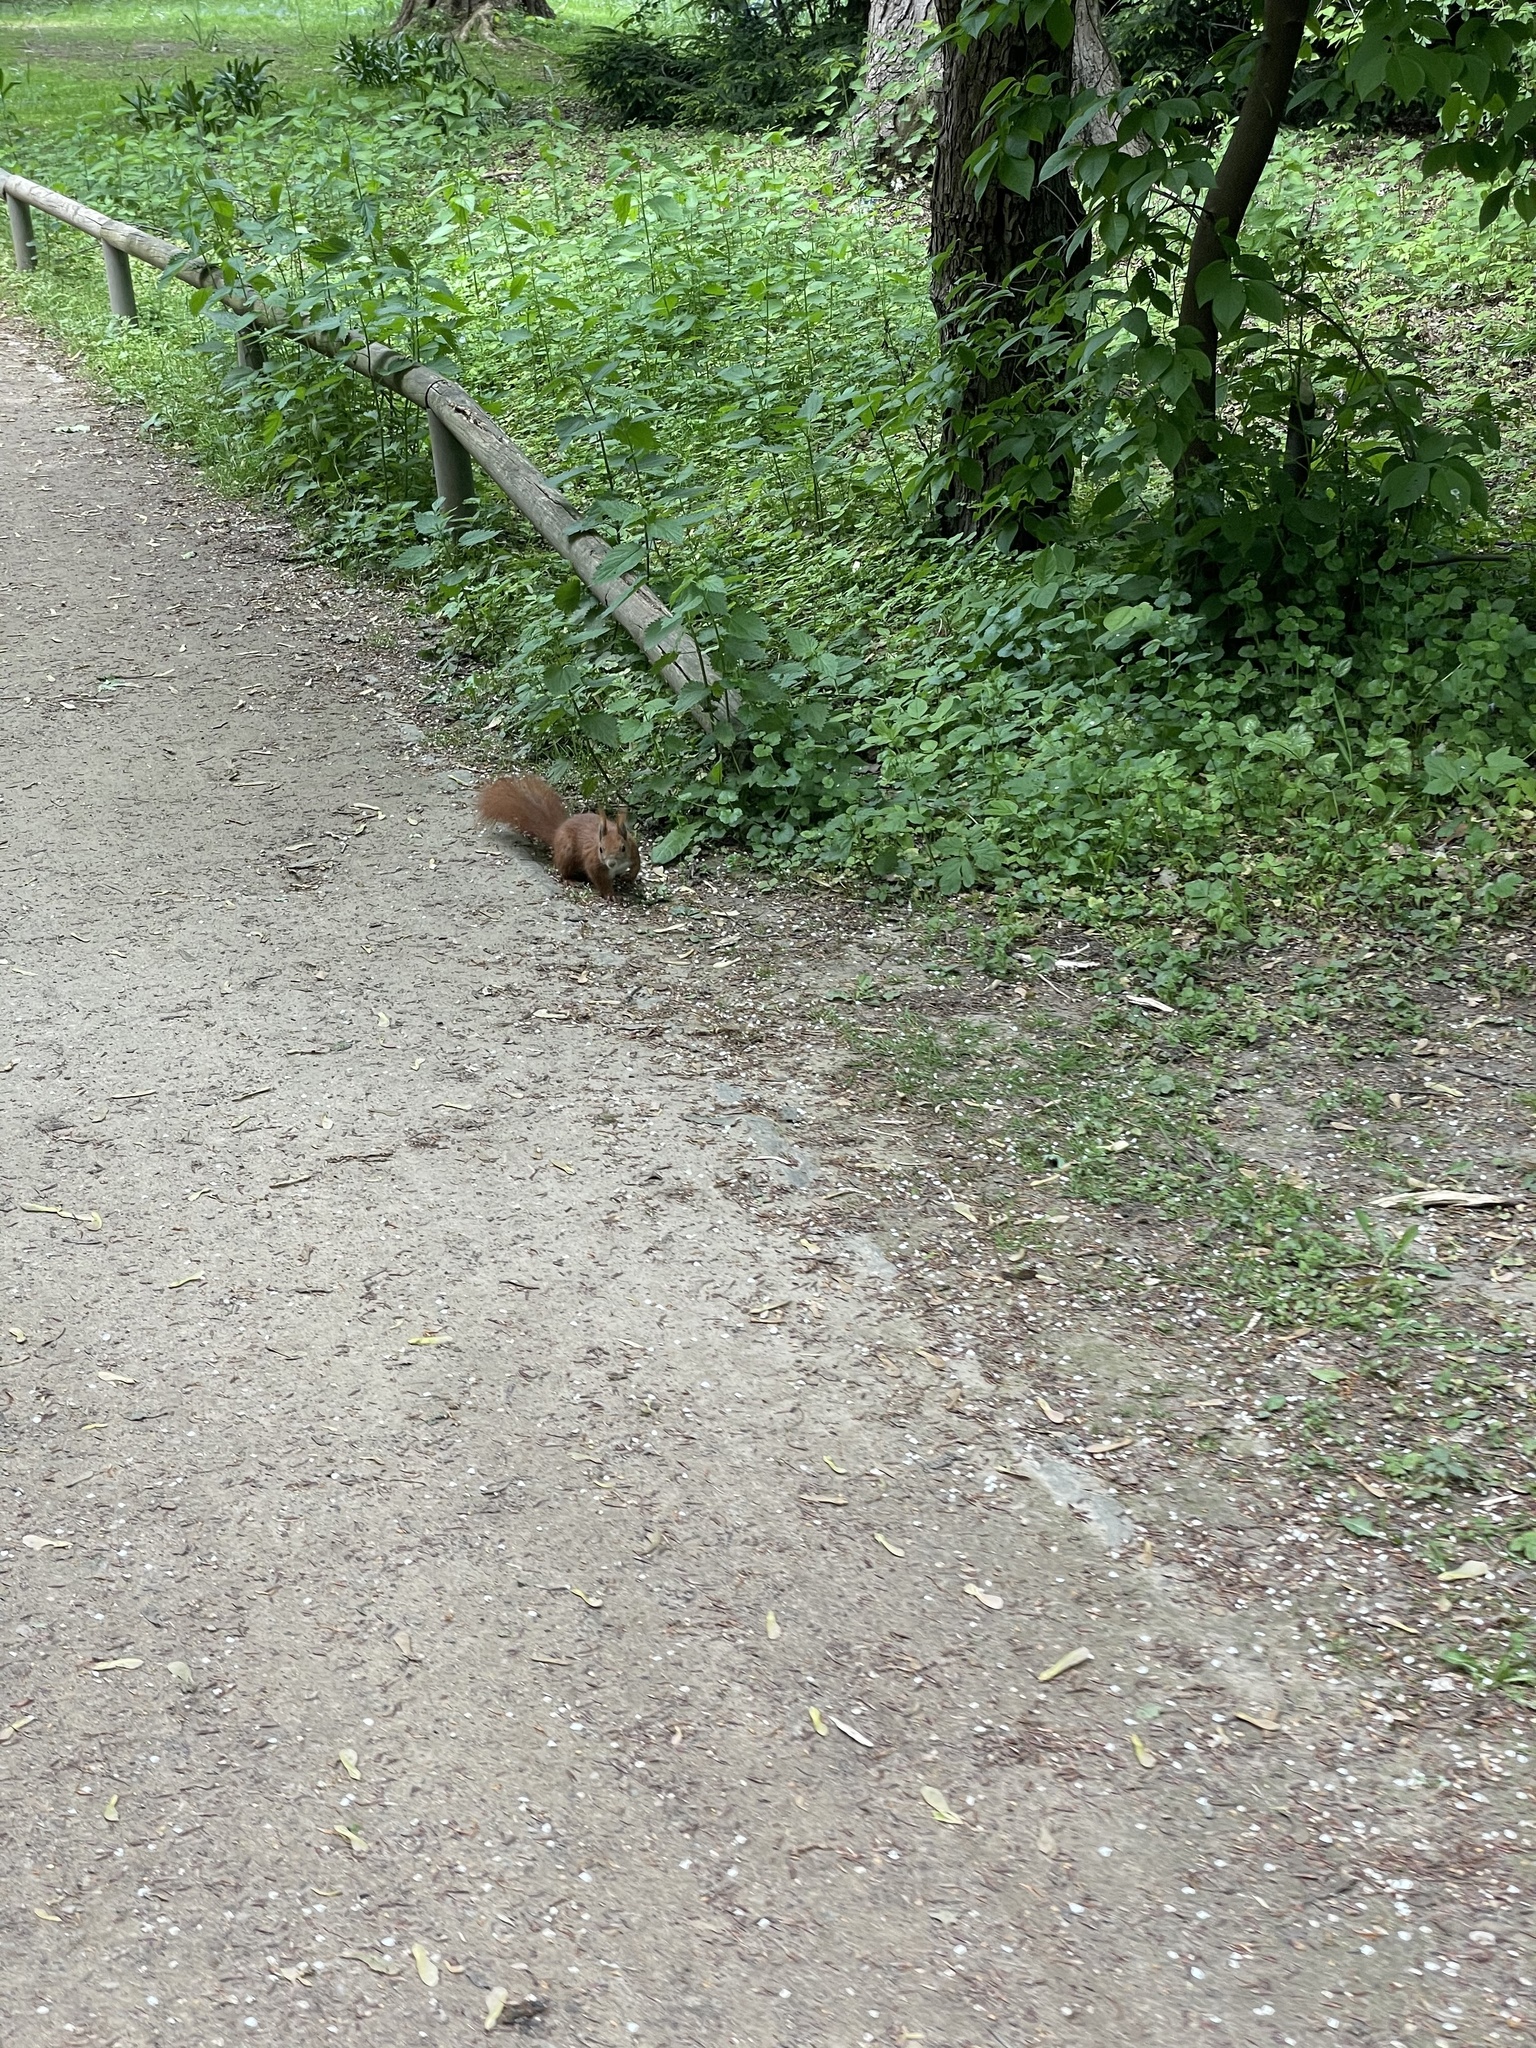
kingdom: Animalia
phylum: Chordata
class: Mammalia
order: Rodentia
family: Sciuridae
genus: Sciurus
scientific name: Sciurus vulgaris
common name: Eurasian red squirrel
